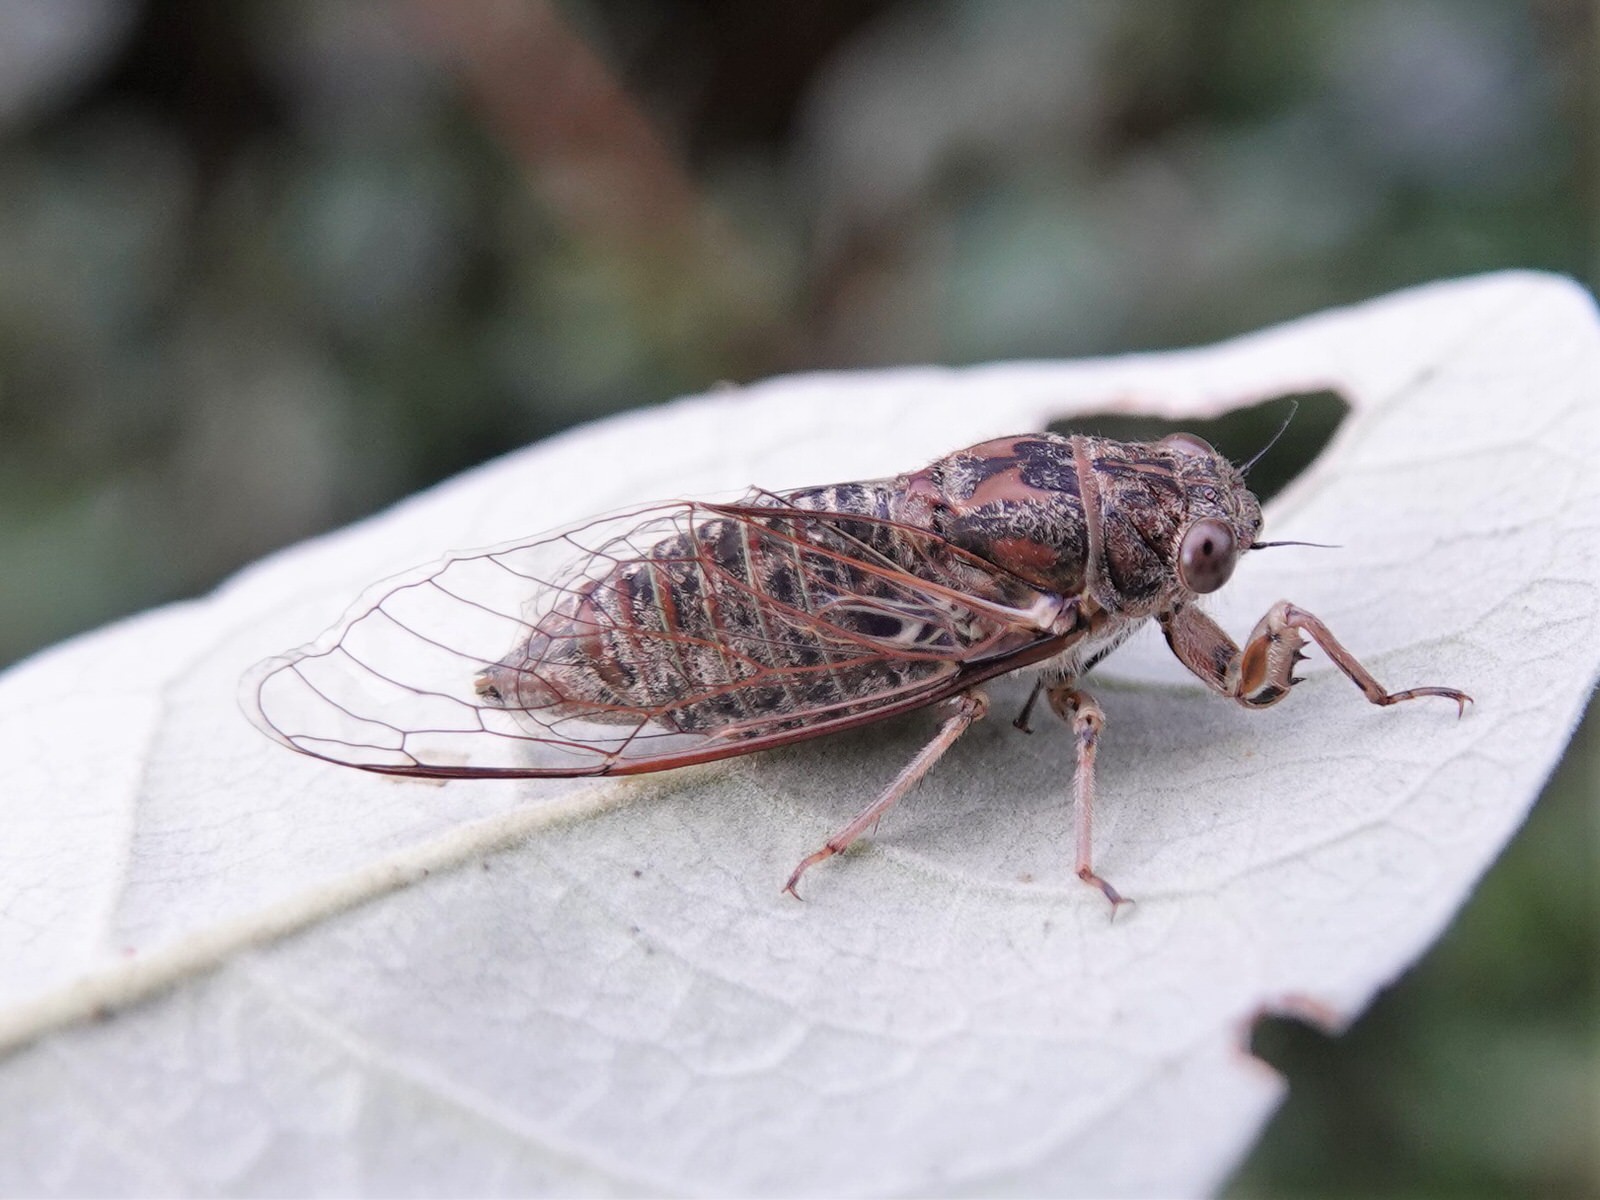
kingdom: Animalia
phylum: Arthropoda
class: Insecta
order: Hemiptera
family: Cicadidae
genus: Notopsalta
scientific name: Notopsalta sericea
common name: Clay bank cicada
